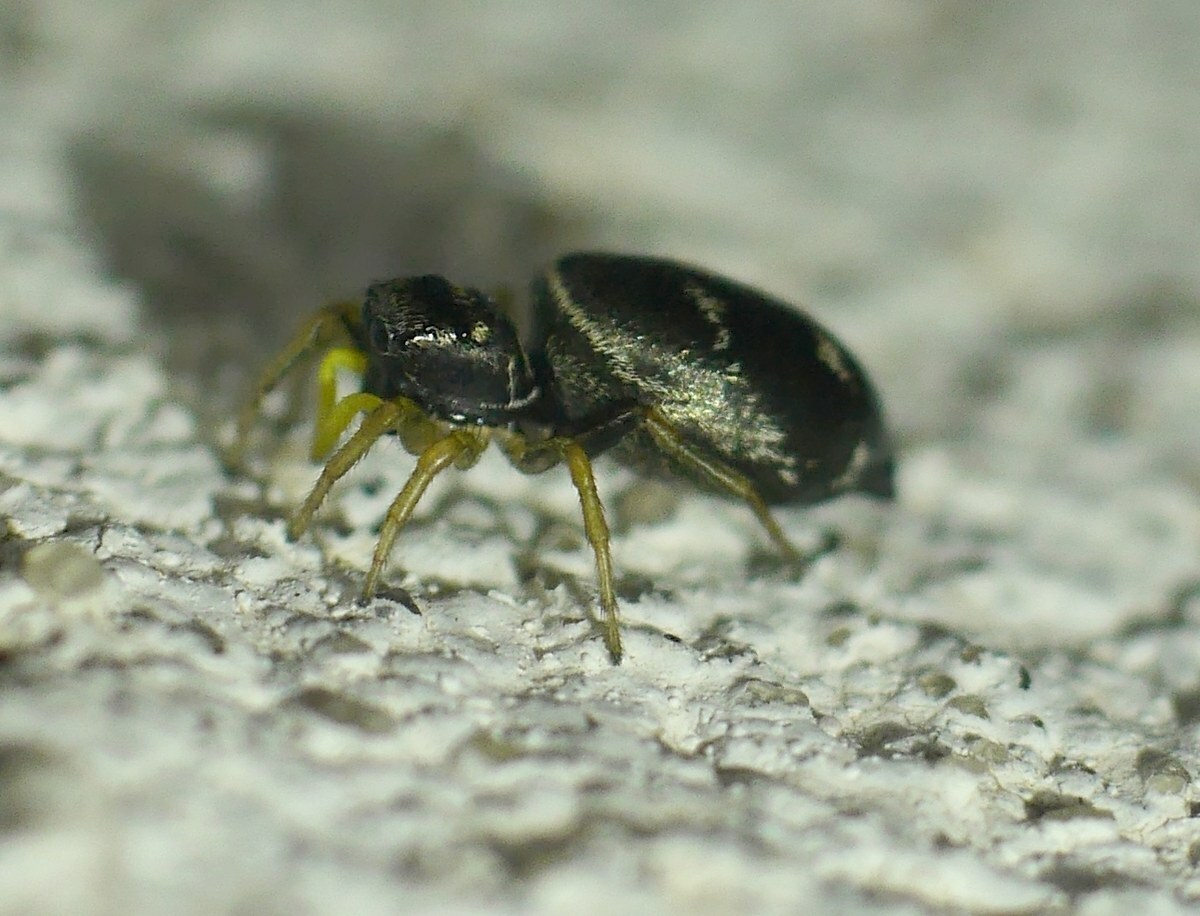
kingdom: Animalia
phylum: Arthropoda
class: Arachnida
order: Araneae
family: Salticidae
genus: Heliophanus
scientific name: Heliophanus cupreus
